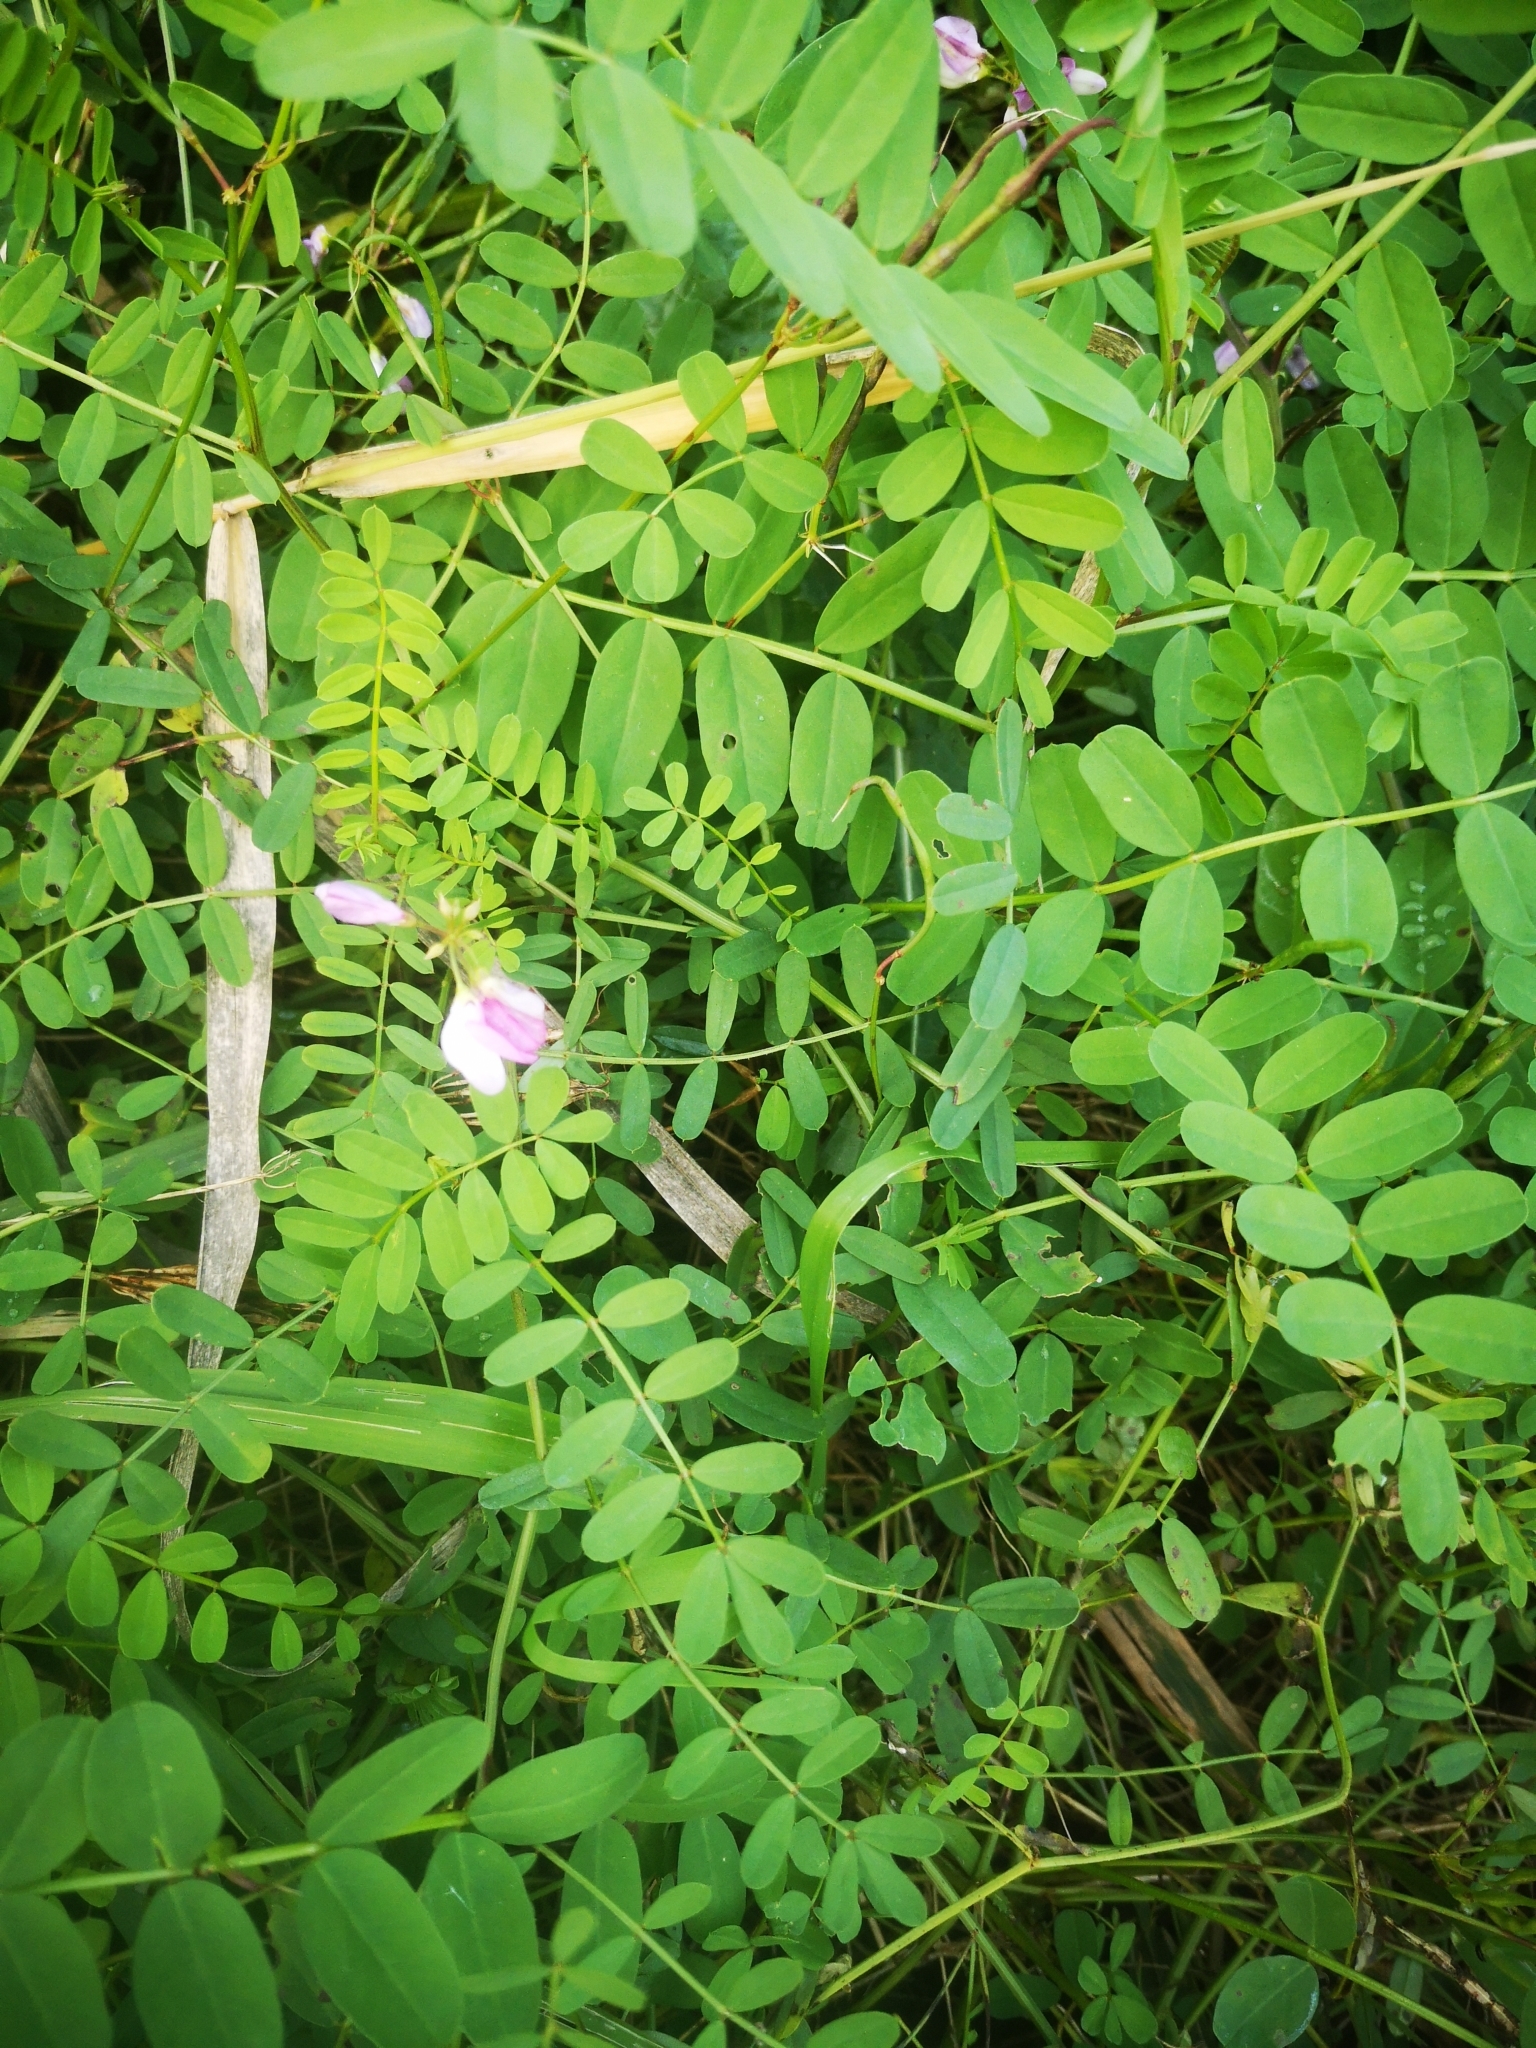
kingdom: Plantae
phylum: Tracheophyta
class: Magnoliopsida
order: Fabales
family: Fabaceae
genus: Coronilla
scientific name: Coronilla varia
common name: Crownvetch
